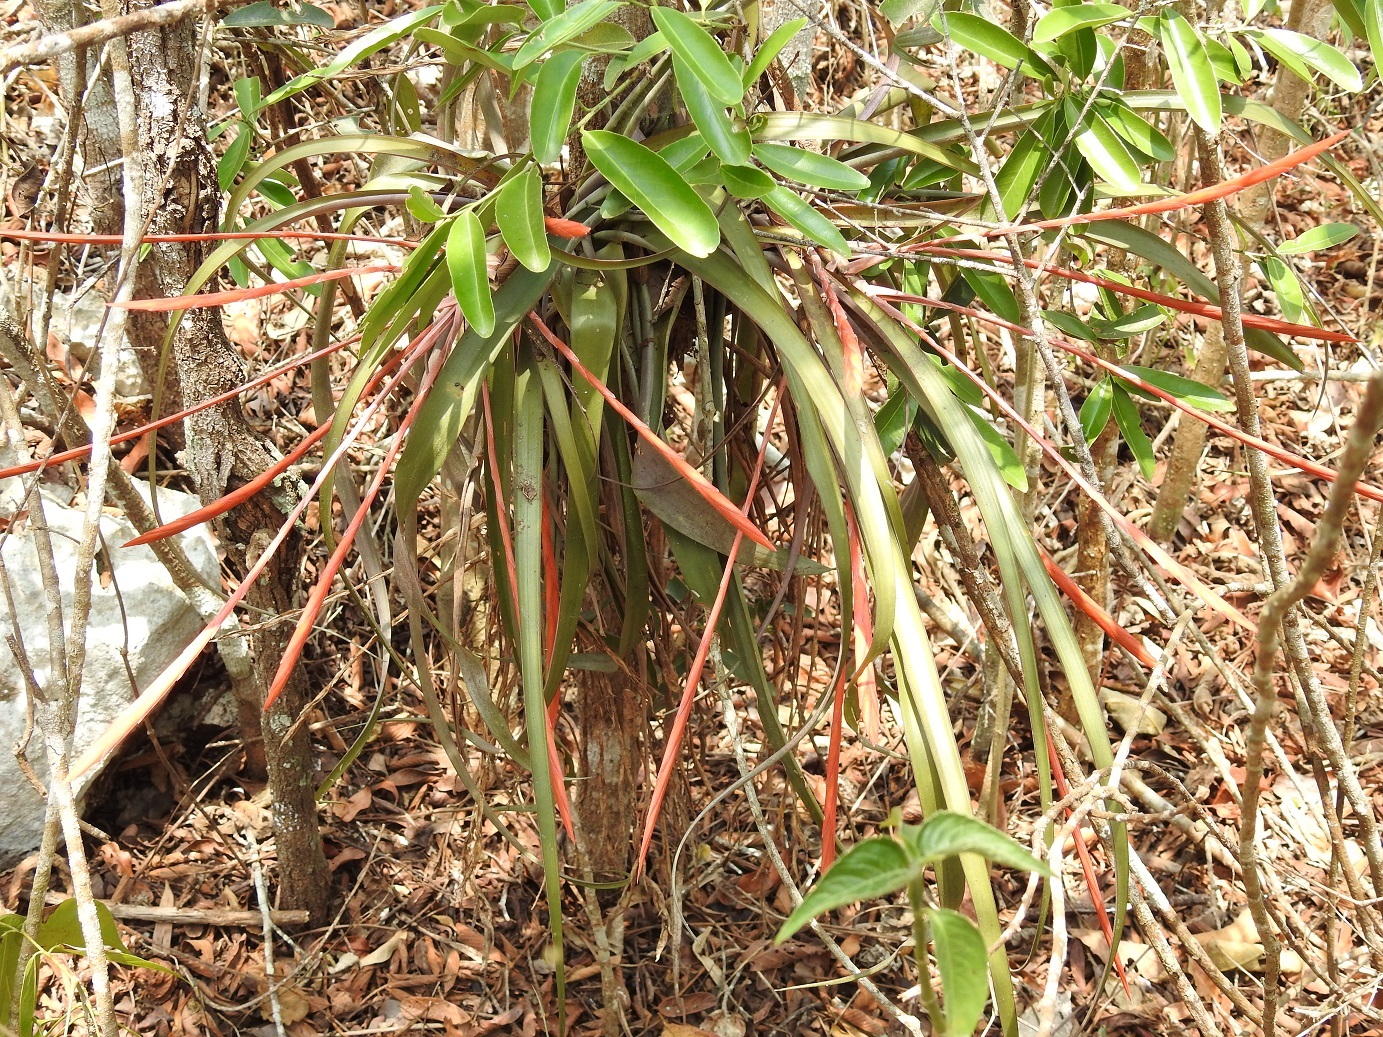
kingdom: Plantae
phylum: Tracheophyta
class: Liliopsida
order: Poales
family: Bromeliaceae
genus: Tillandsia
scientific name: Tillandsia flabellata
